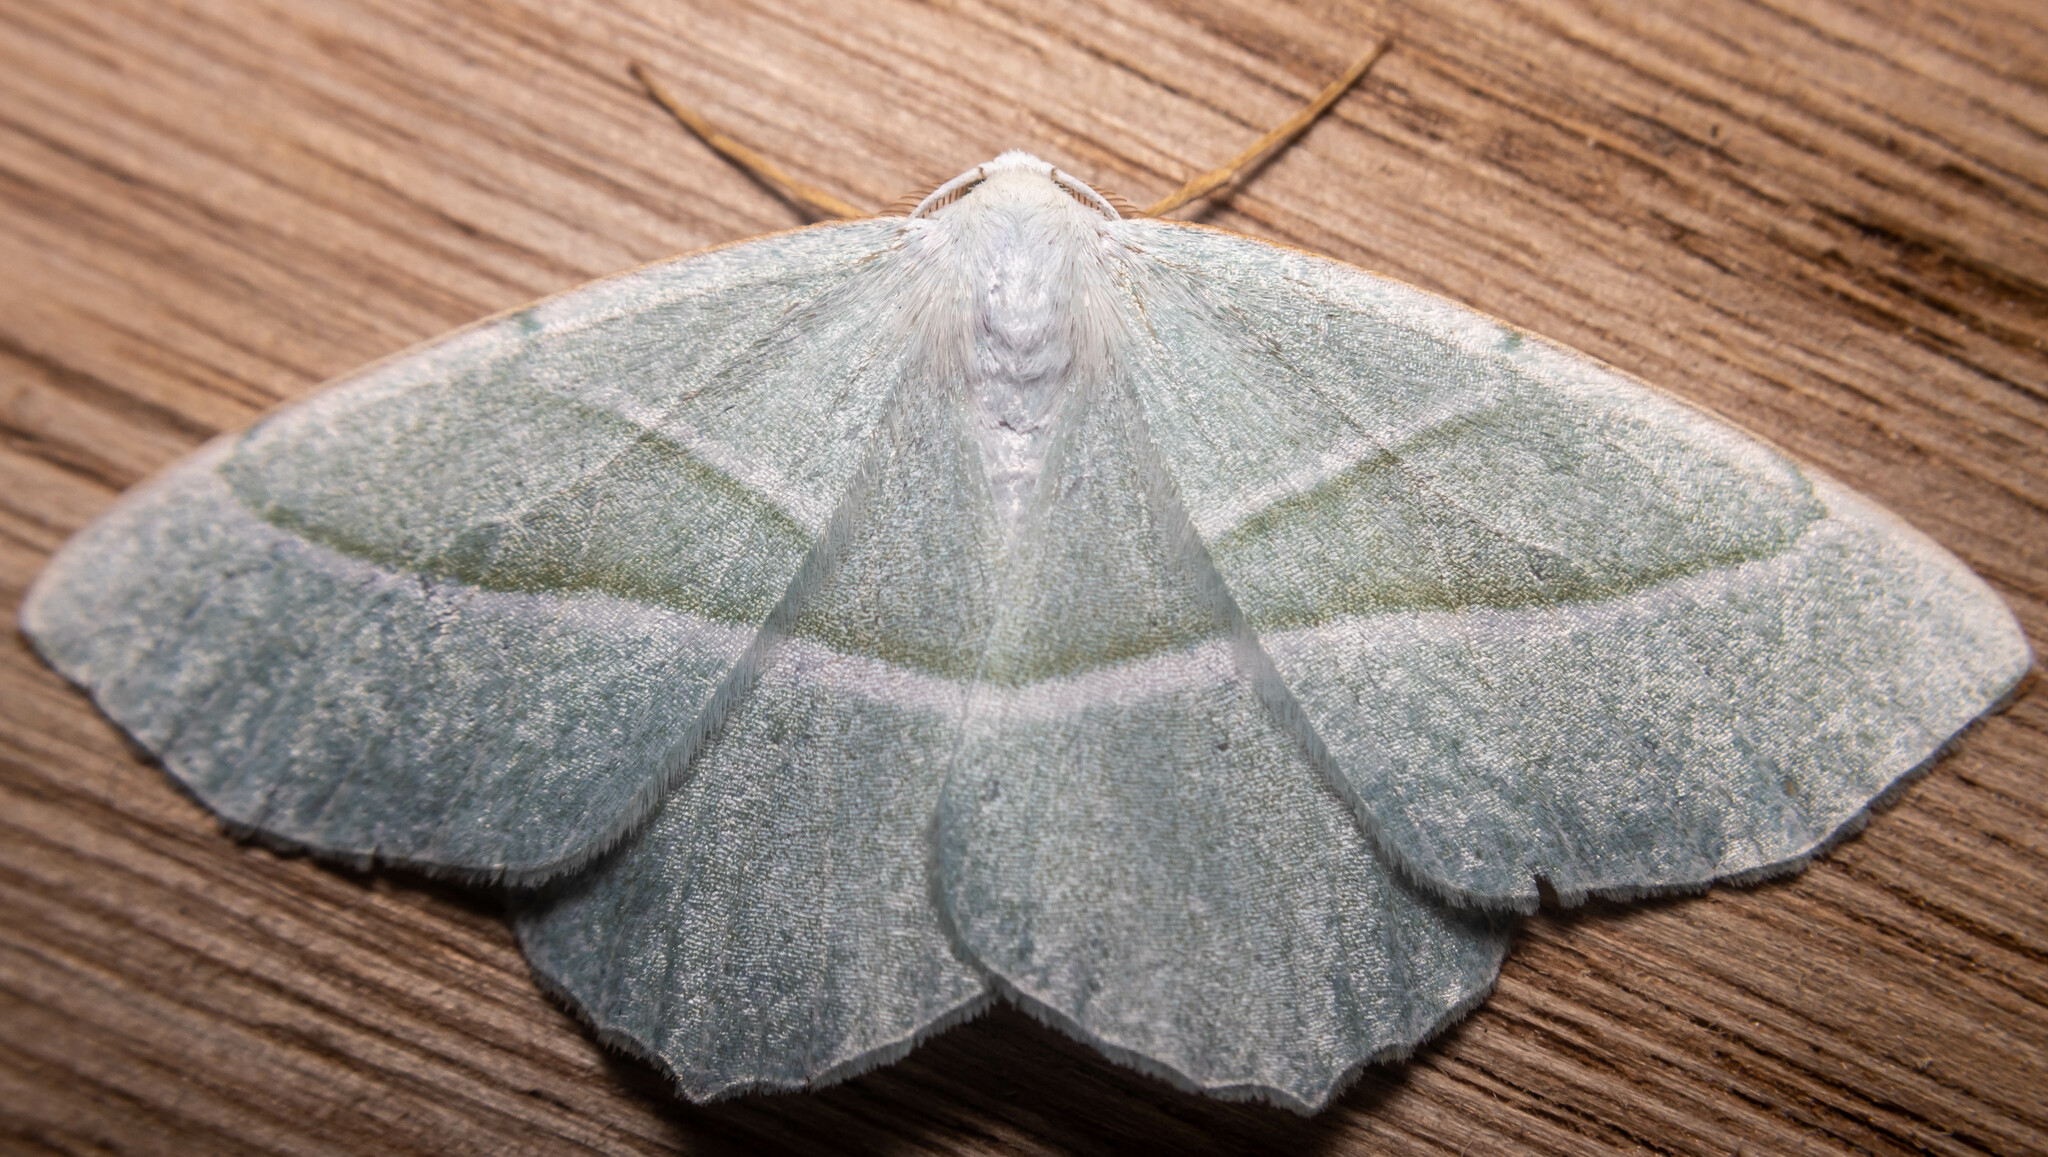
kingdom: Animalia
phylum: Arthropoda
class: Insecta
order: Lepidoptera
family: Geometridae
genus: Campaea
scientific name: Campaea margaritaria
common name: Light emerald
